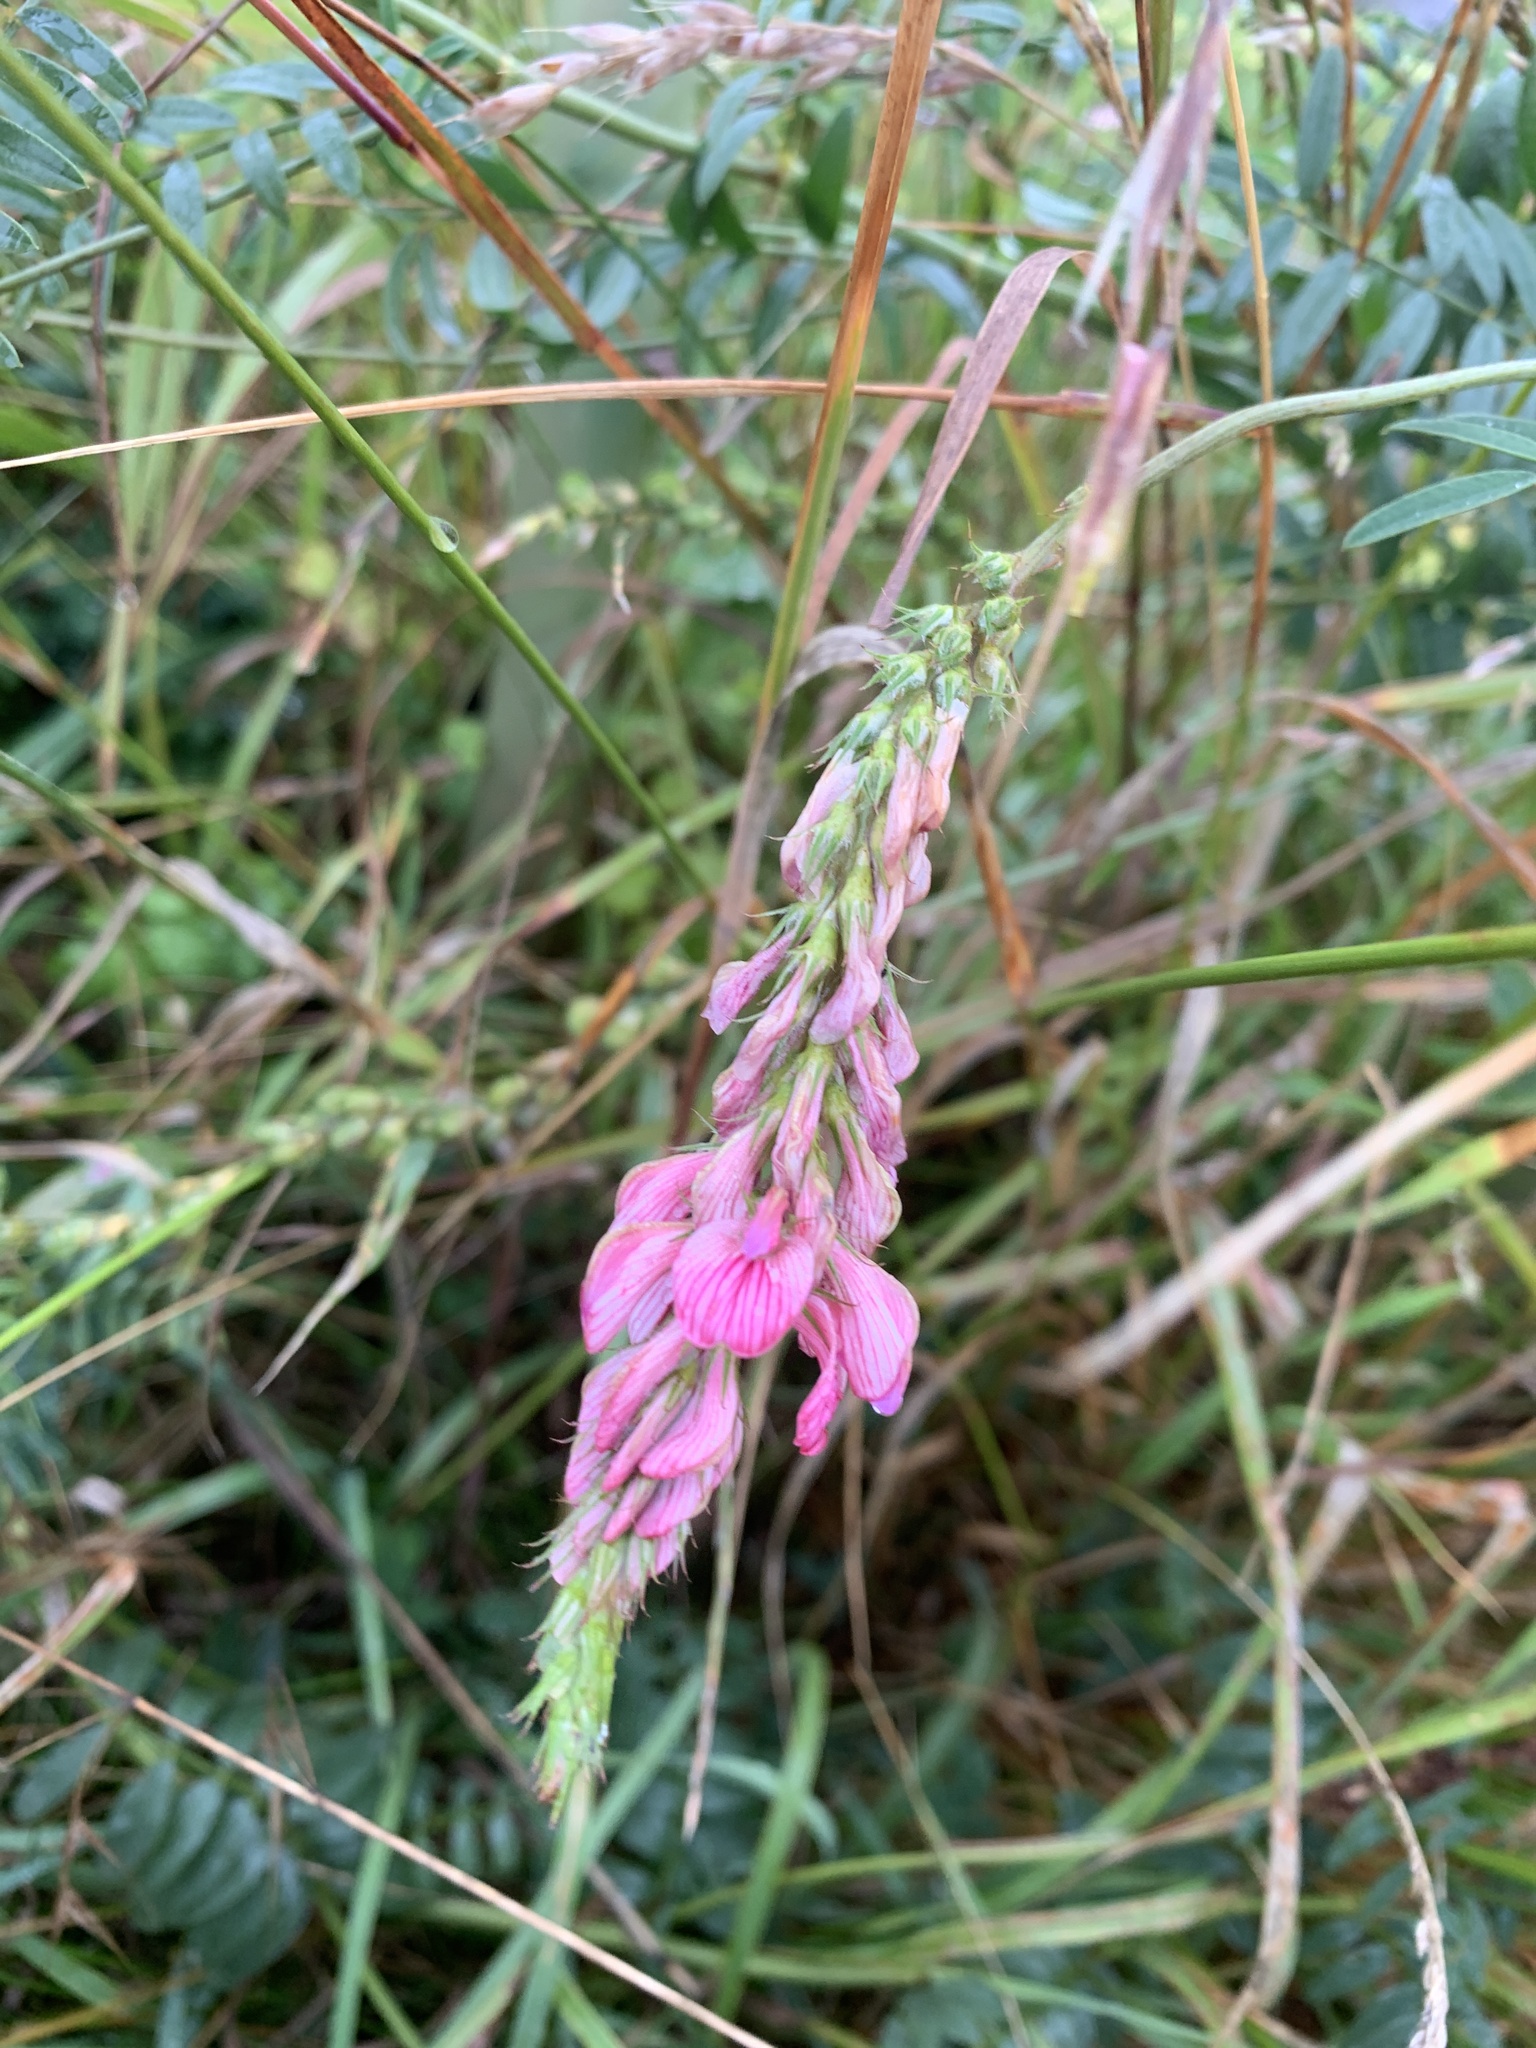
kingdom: Plantae
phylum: Tracheophyta
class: Magnoliopsida
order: Fabales
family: Fabaceae
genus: Onobrychis
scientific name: Onobrychis viciifolia
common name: Sainfoin
